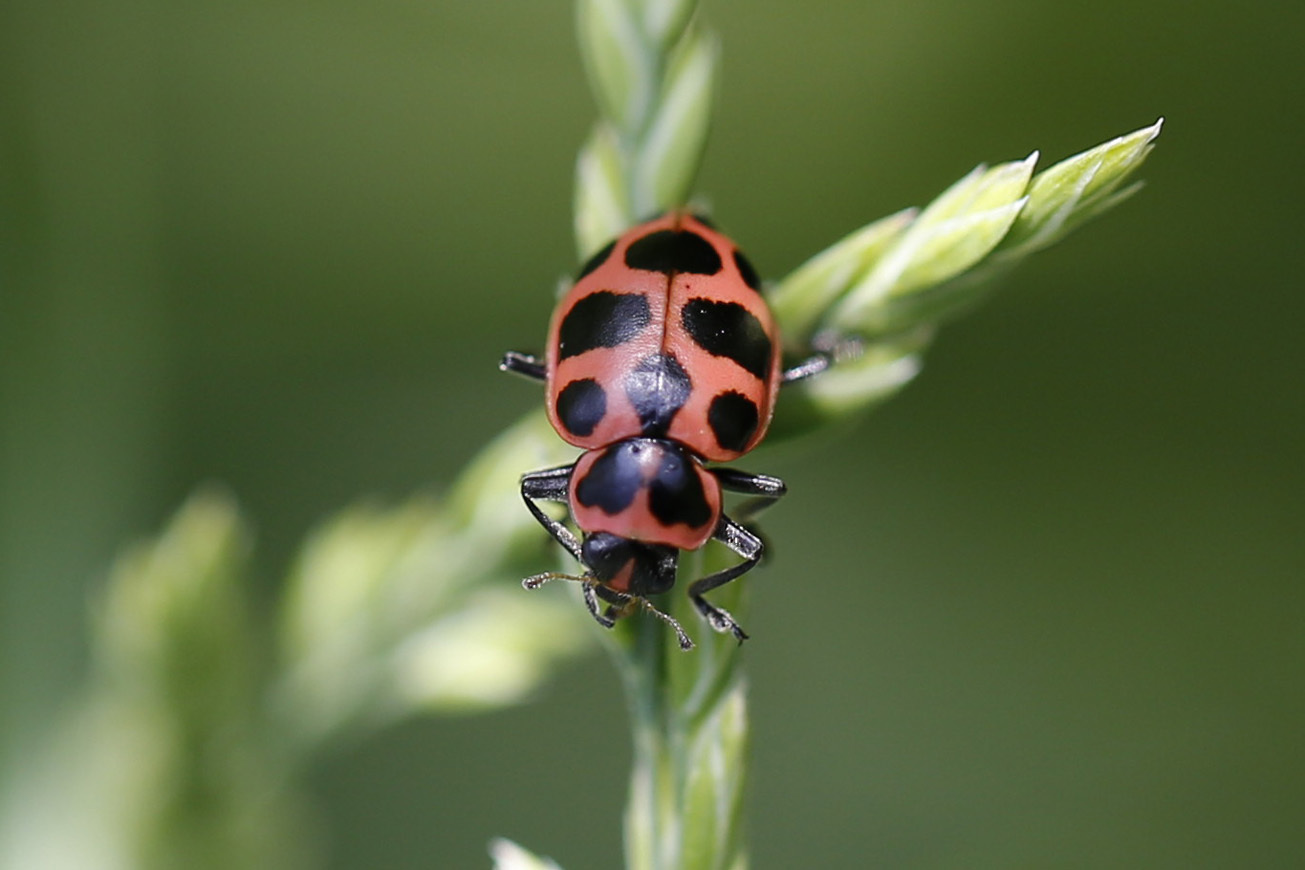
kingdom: Animalia
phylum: Arthropoda
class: Insecta
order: Coleoptera
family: Coccinellidae
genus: Coleomegilla
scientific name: Coleomegilla maculata
